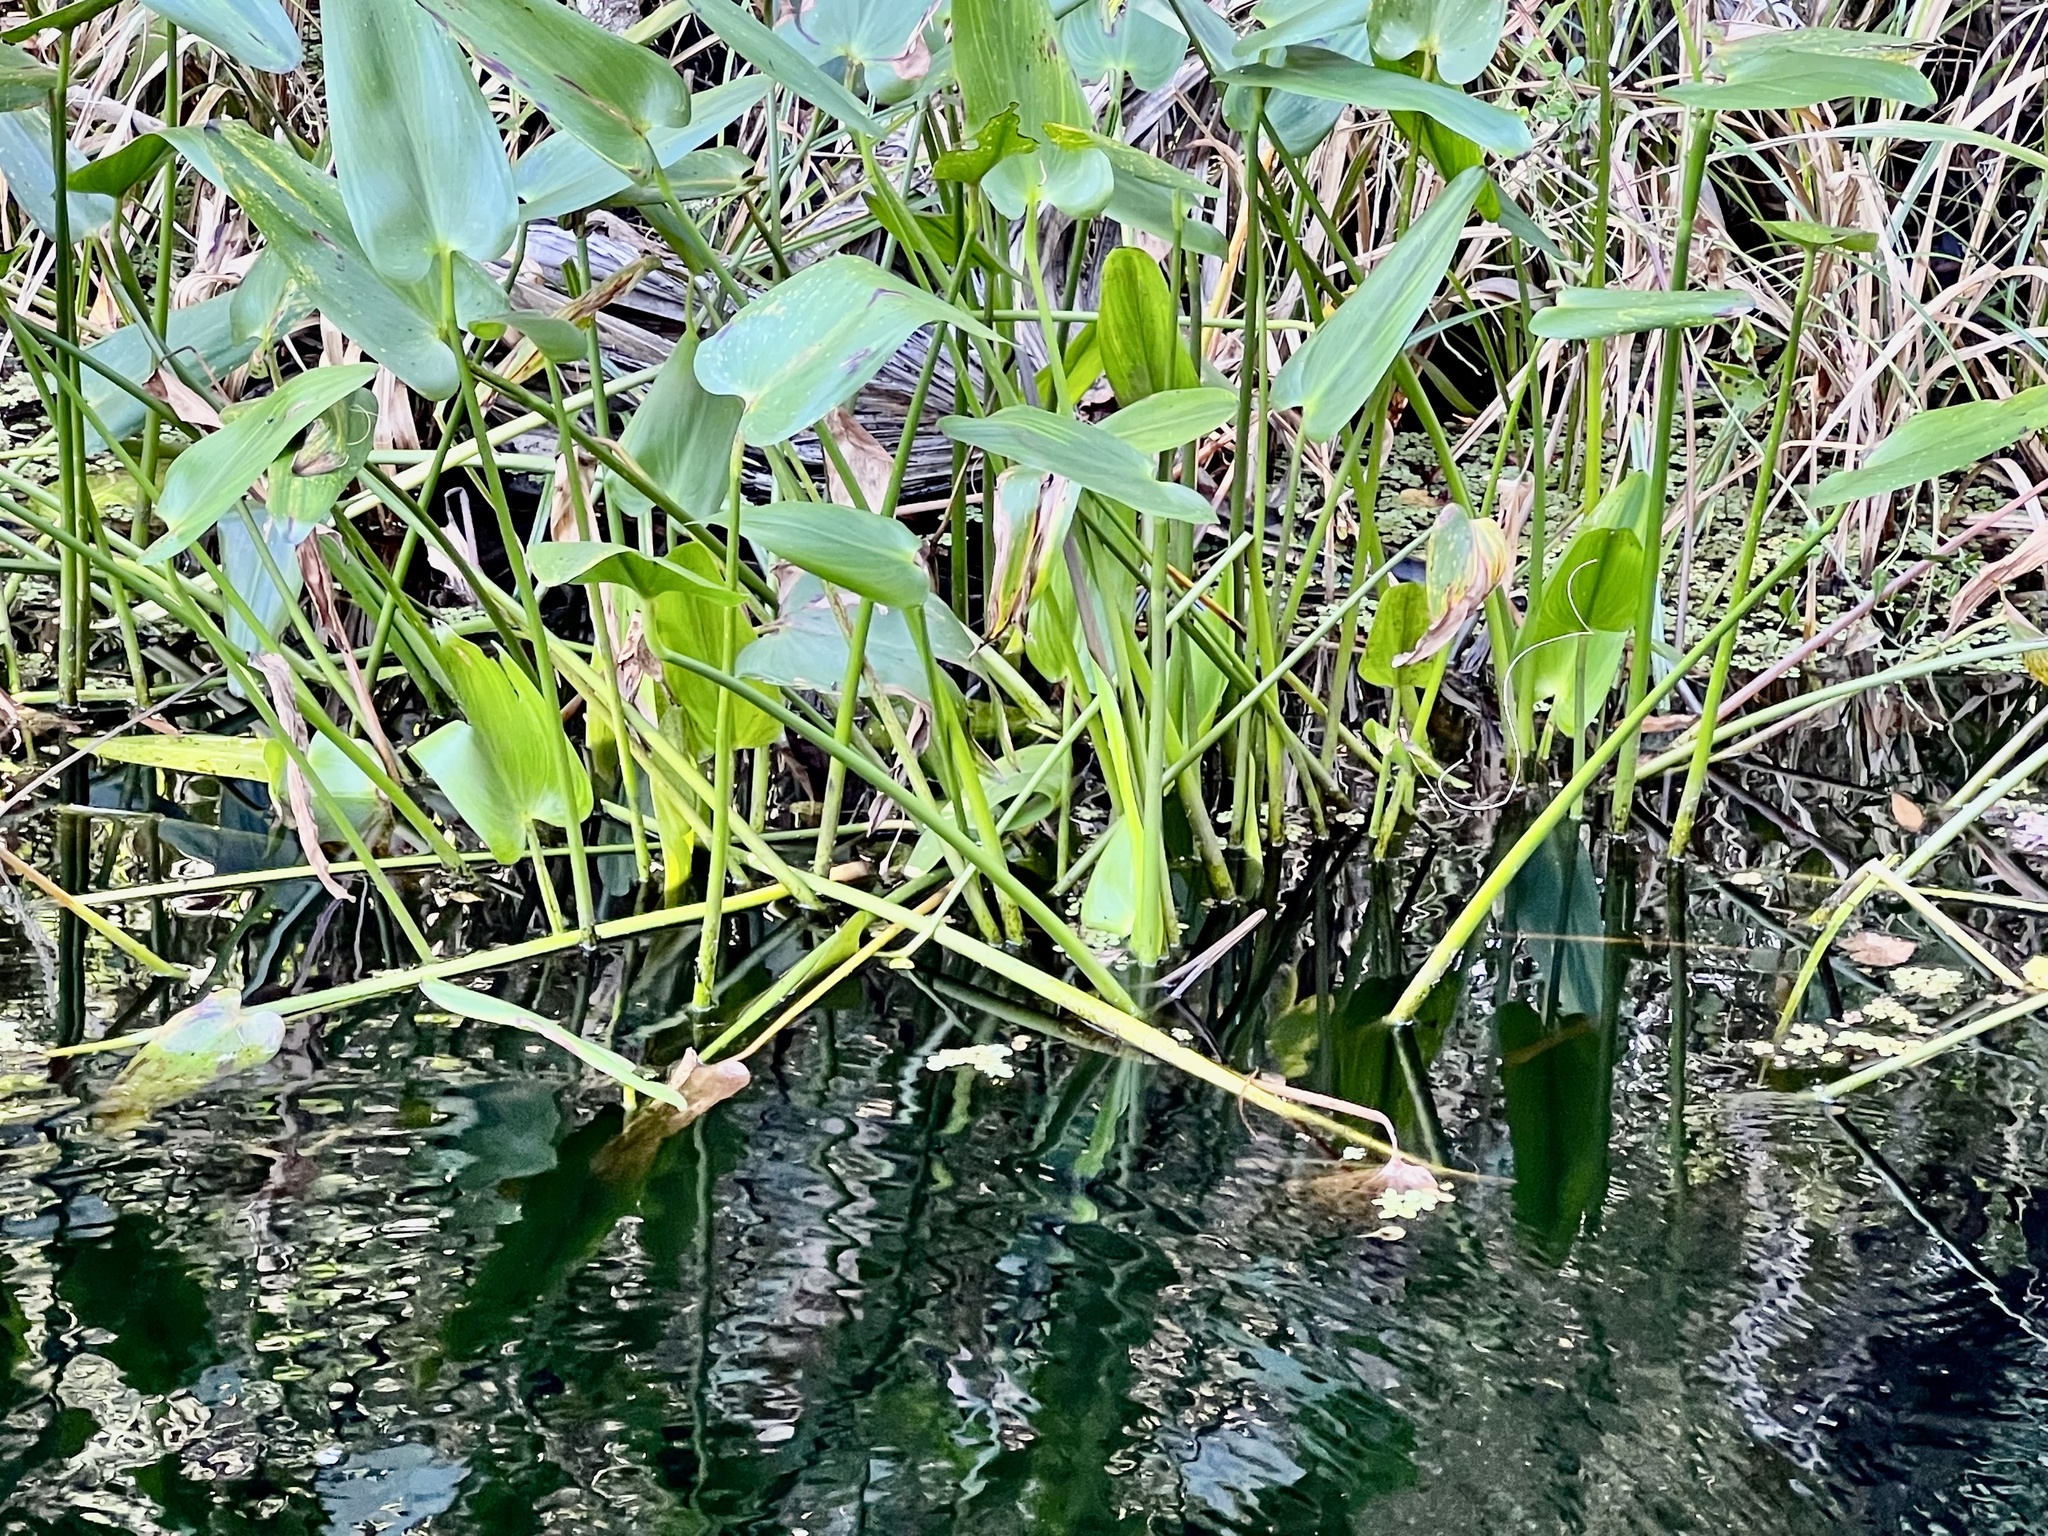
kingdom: Plantae
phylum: Tracheophyta
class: Liliopsida
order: Commelinales
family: Pontederiaceae
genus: Pontederia
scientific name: Pontederia cordata
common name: Pickerelweed
